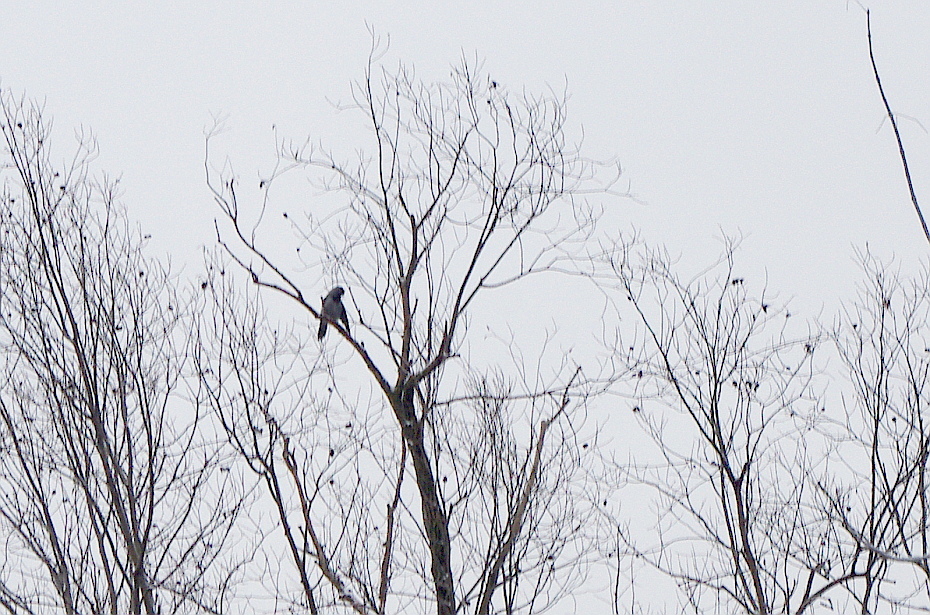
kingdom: Animalia
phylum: Chordata
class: Aves
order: Passeriformes
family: Corvidae
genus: Corvus
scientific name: Corvus cornix
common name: Hooded crow
